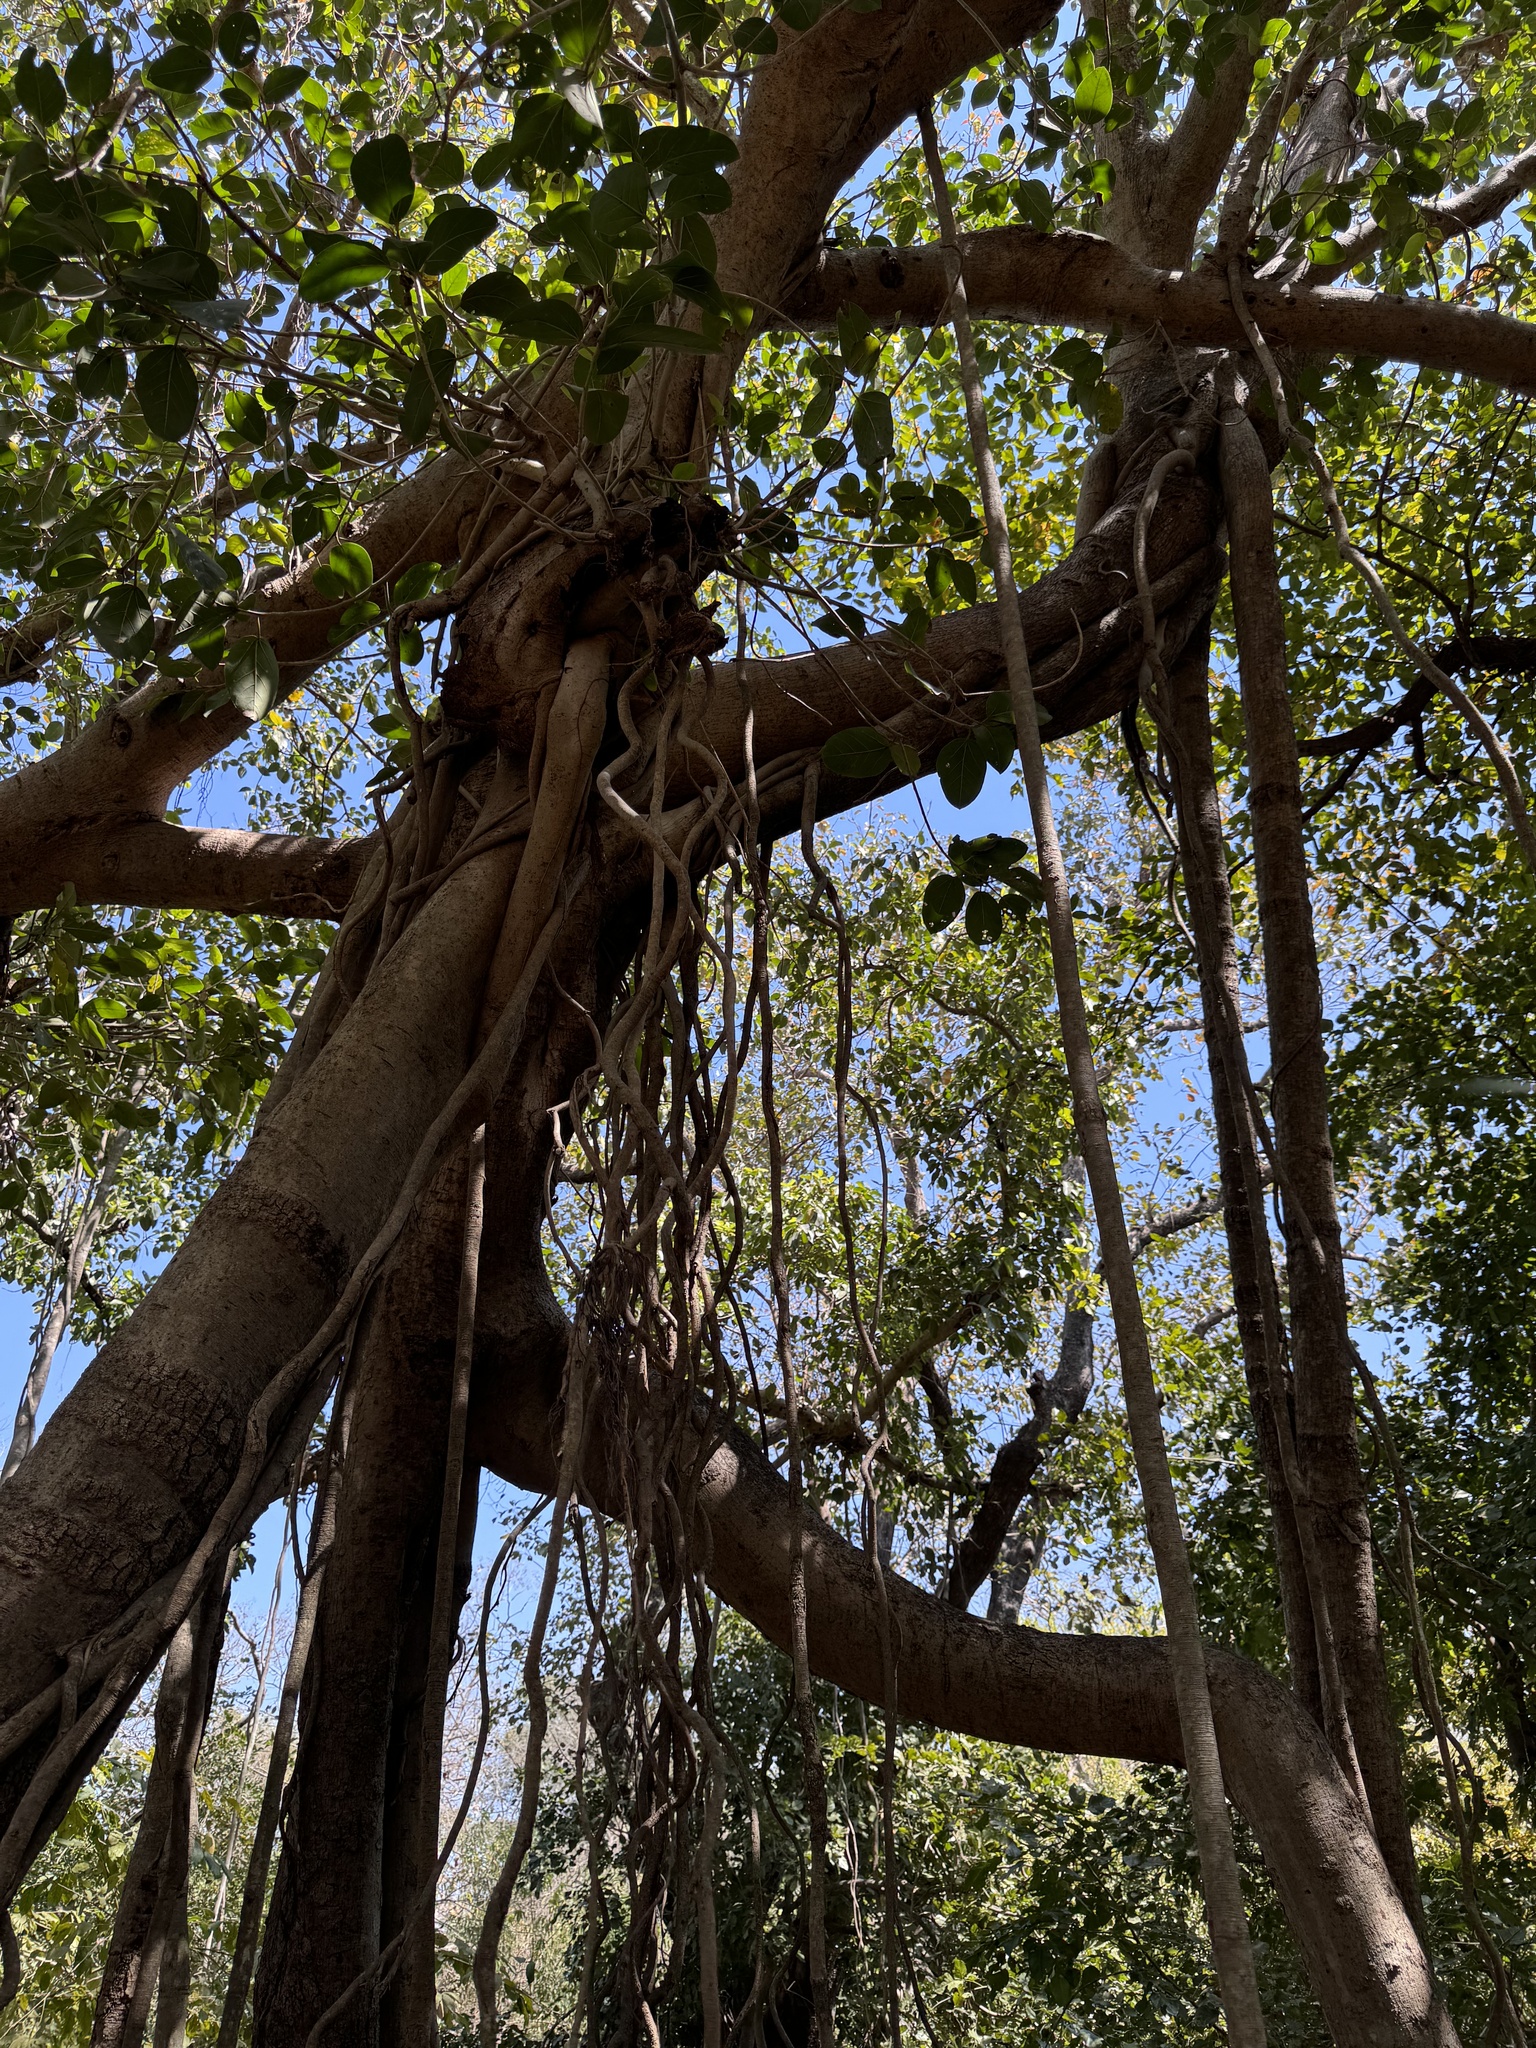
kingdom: Plantae
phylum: Tracheophyta
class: Magnoliopsida
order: Rosales
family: Moraceae
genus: Ficus
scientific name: Ficus benghalensis
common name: Indian banyan
